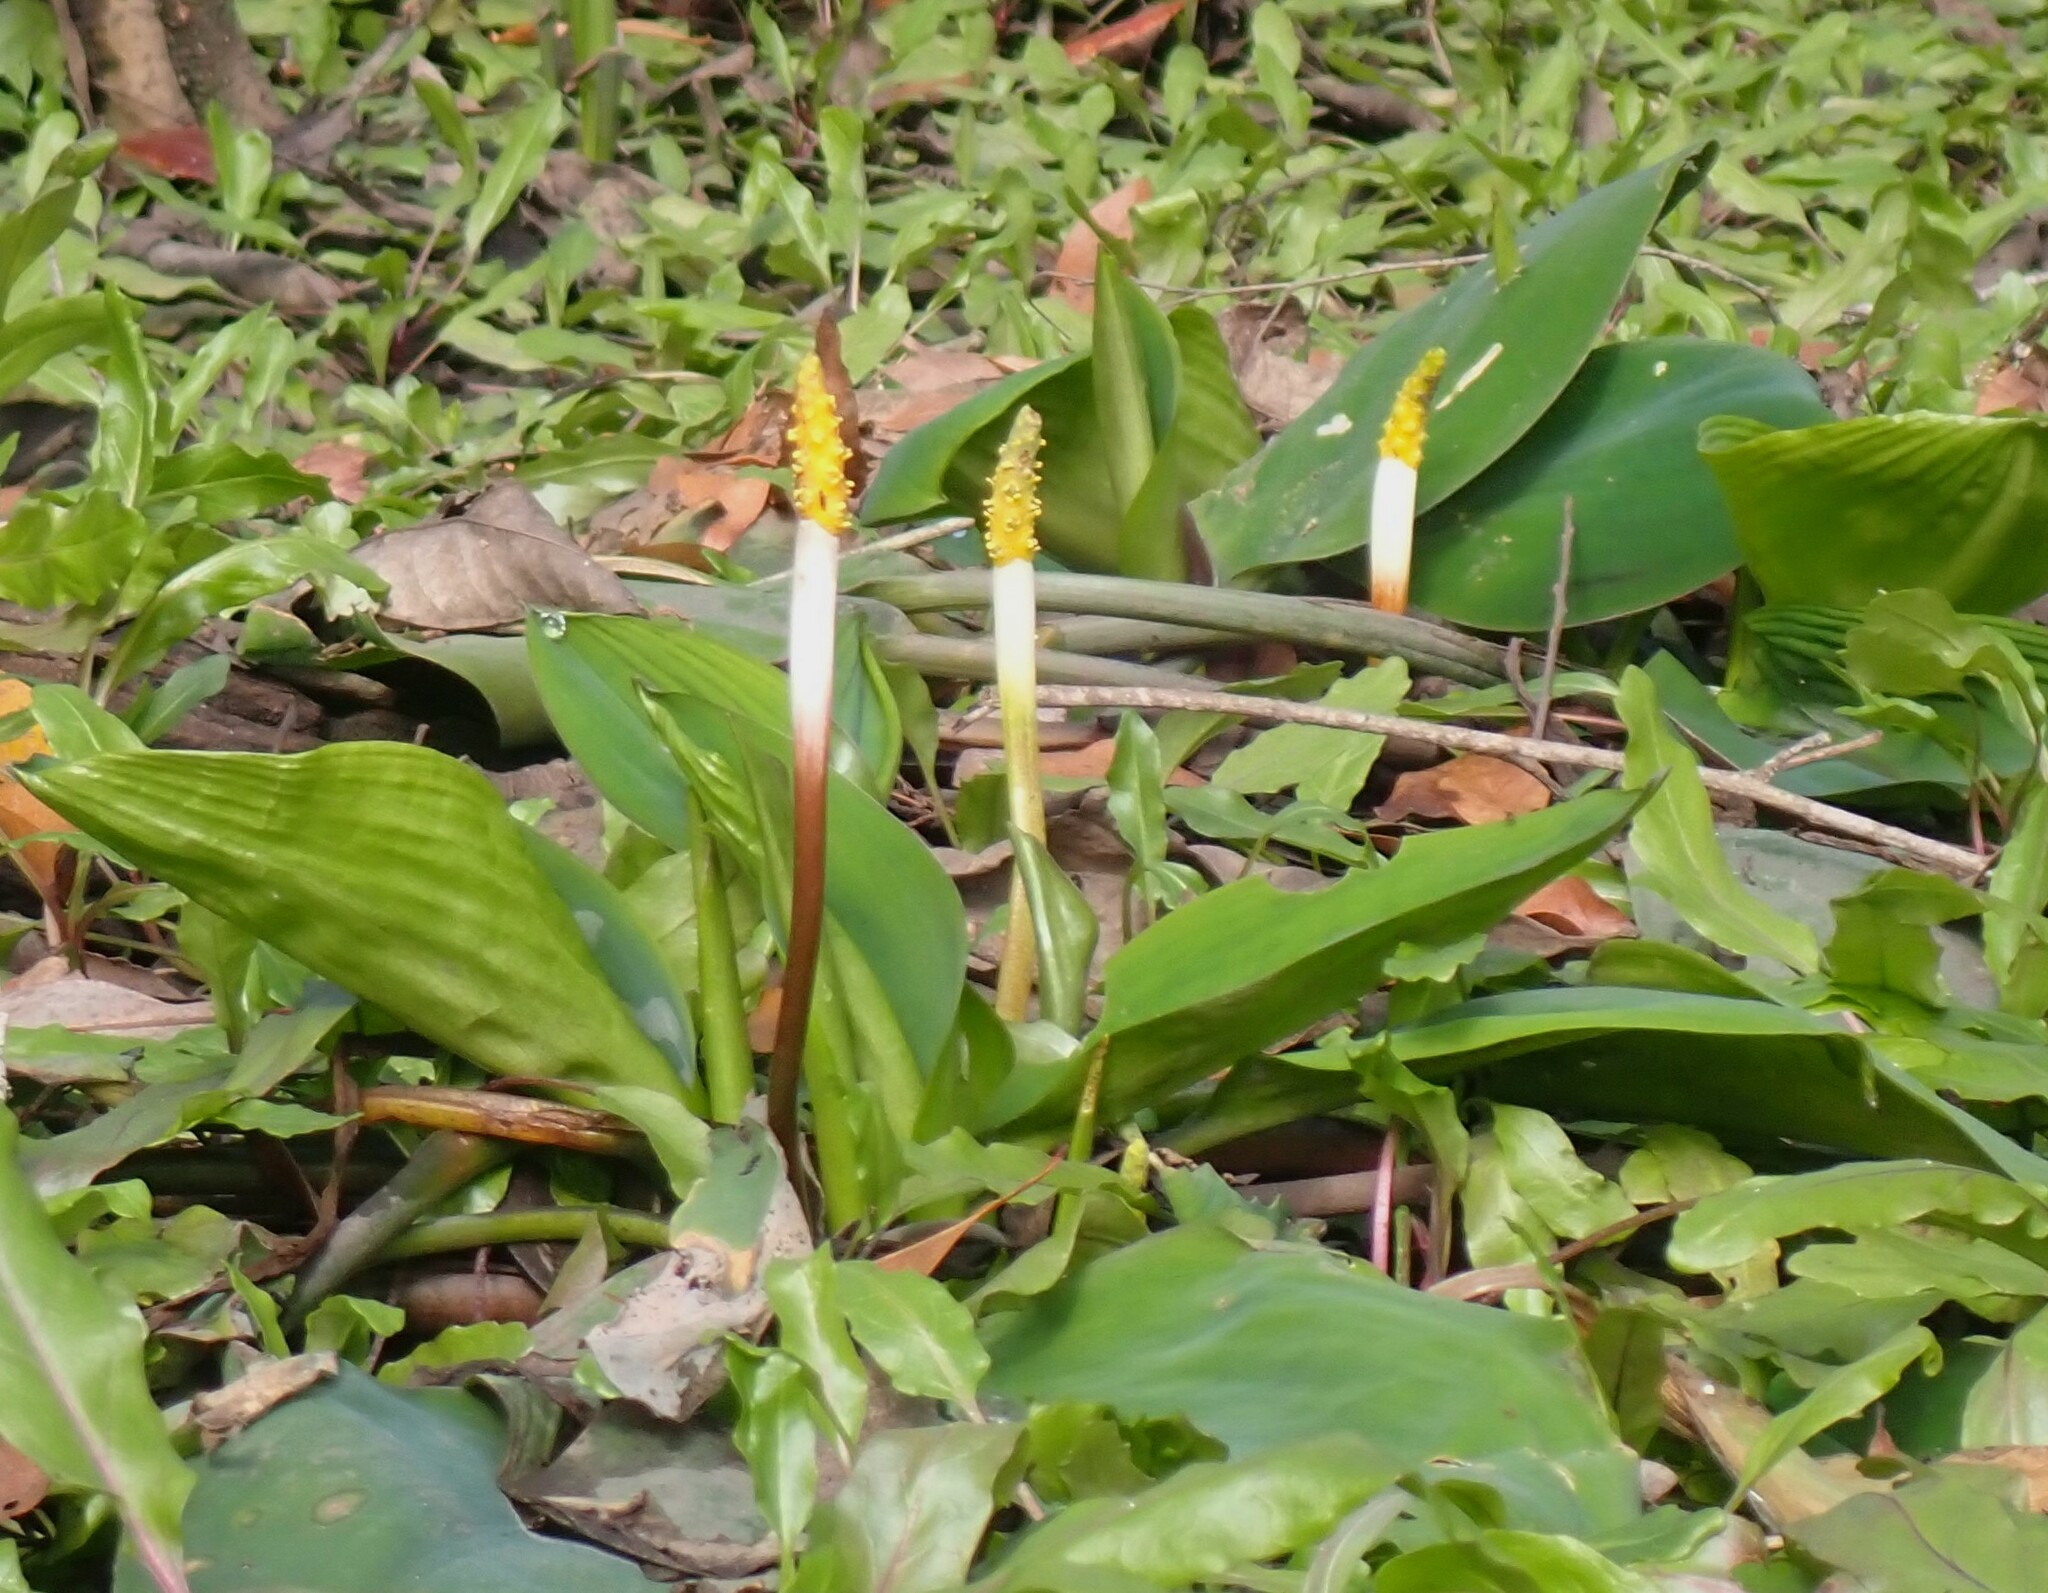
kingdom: Plantae
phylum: Tracheophyta
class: Liliopsida
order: Alismatales
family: Araceae
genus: Orontium
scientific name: Orontium aquaticum
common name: Golden-club
